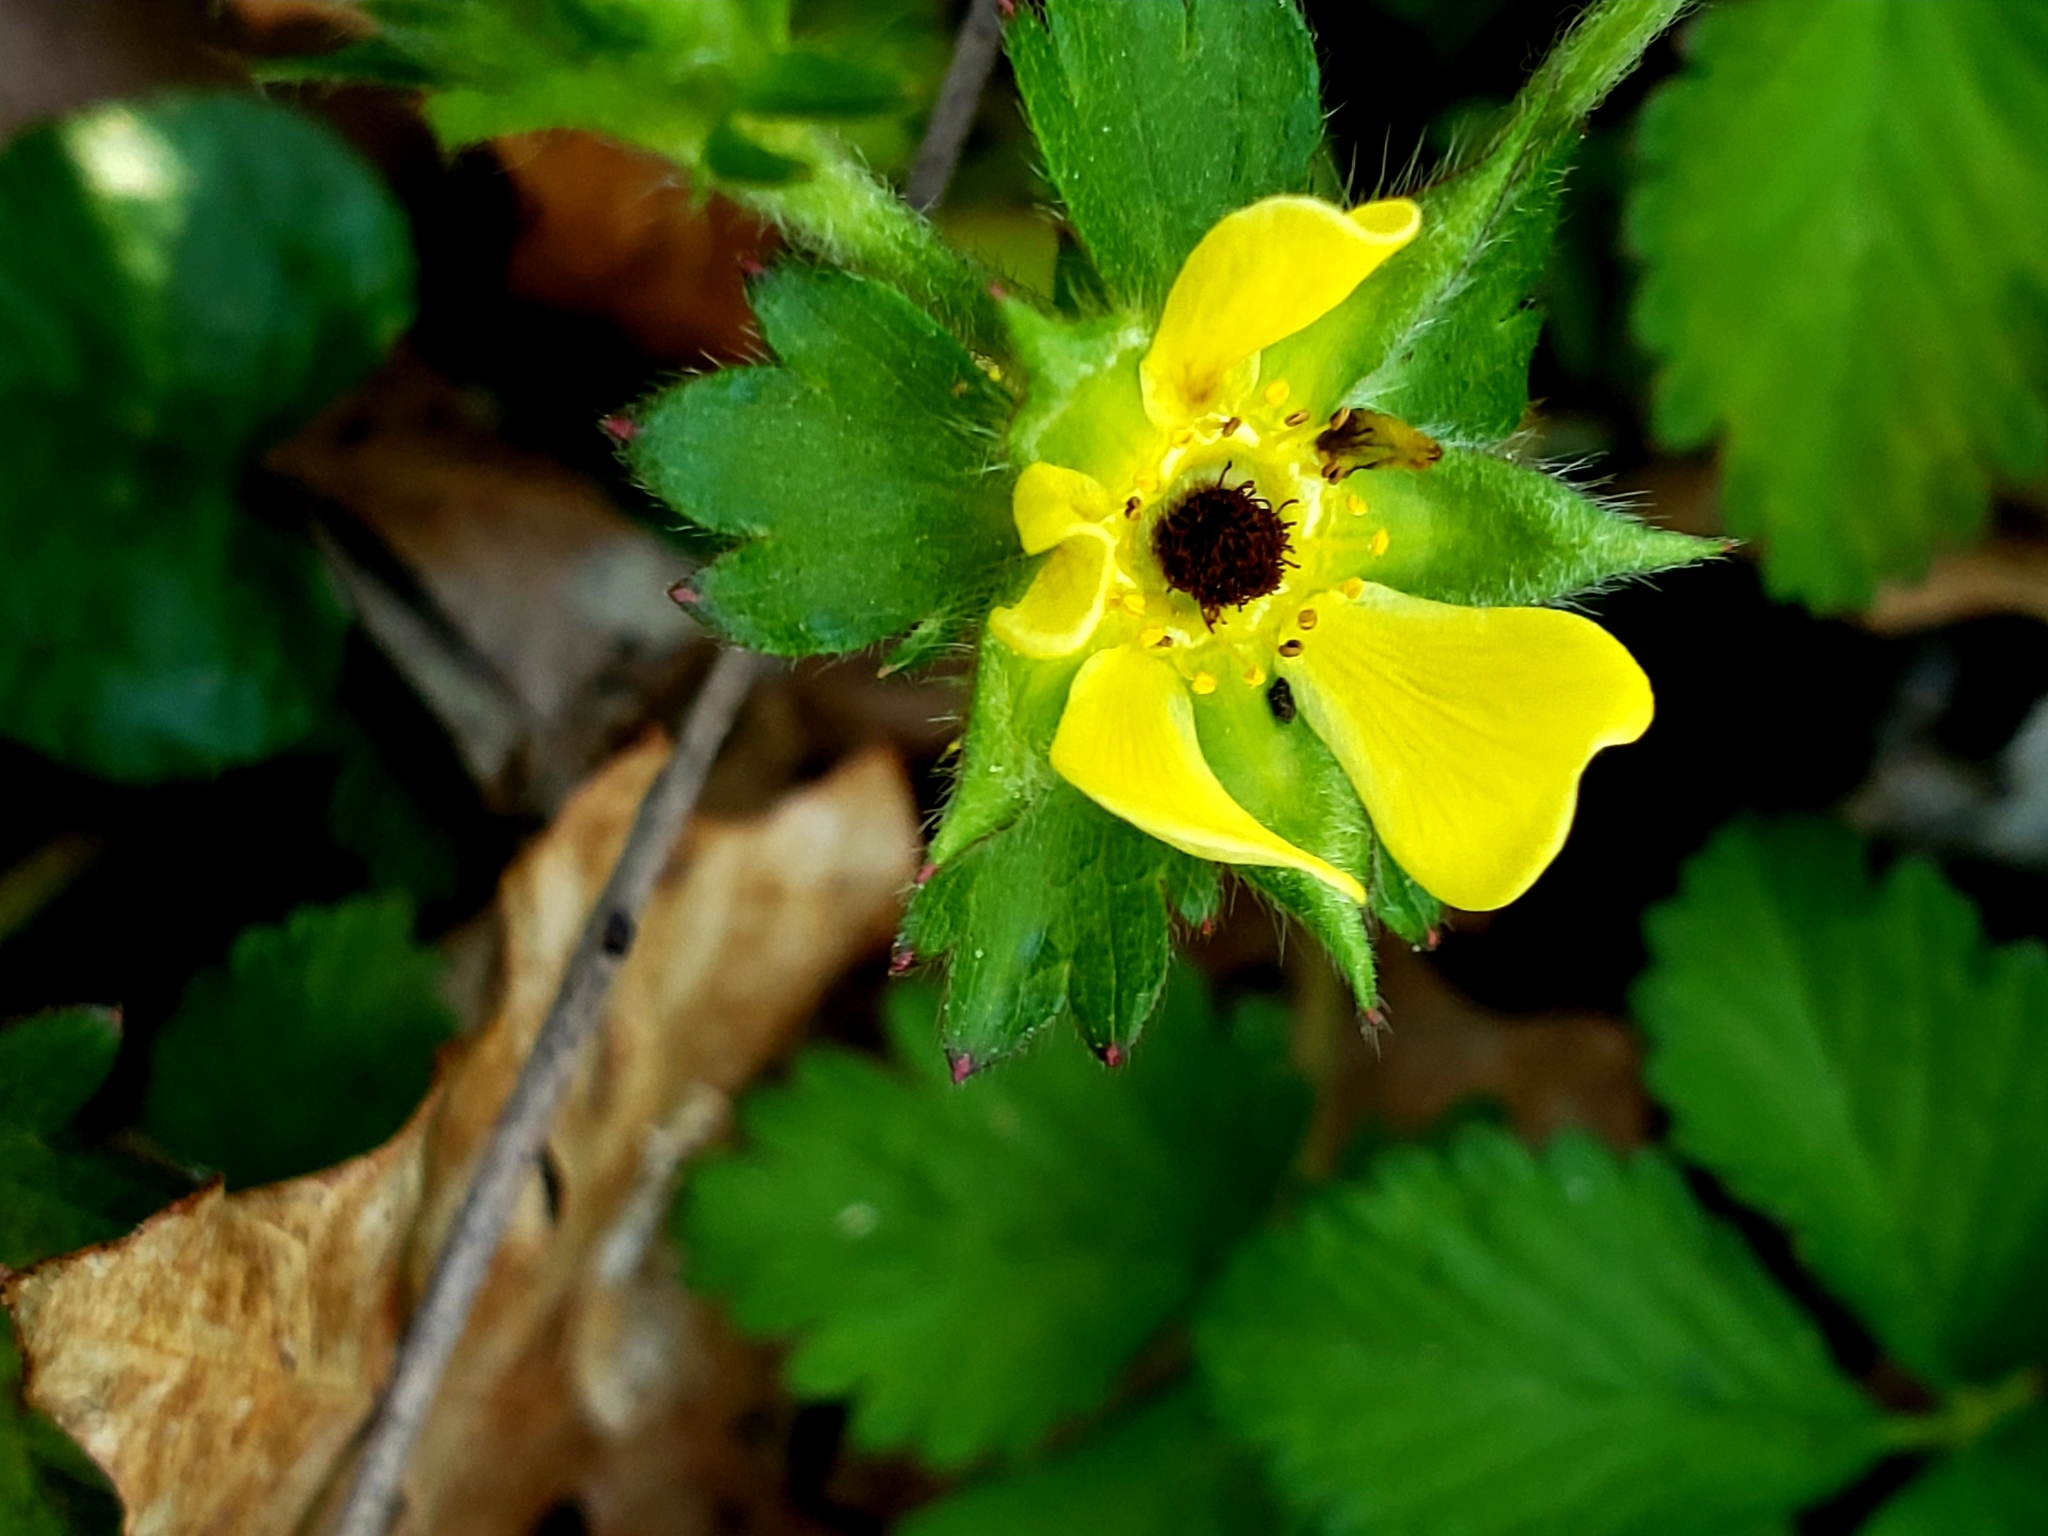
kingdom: Plantae
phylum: Tracheophyta
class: Magnoliopsida
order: Rosales
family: Rosaceae
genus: Potentilla
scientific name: Potentilla indica
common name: Yellow-flowered strawberry
